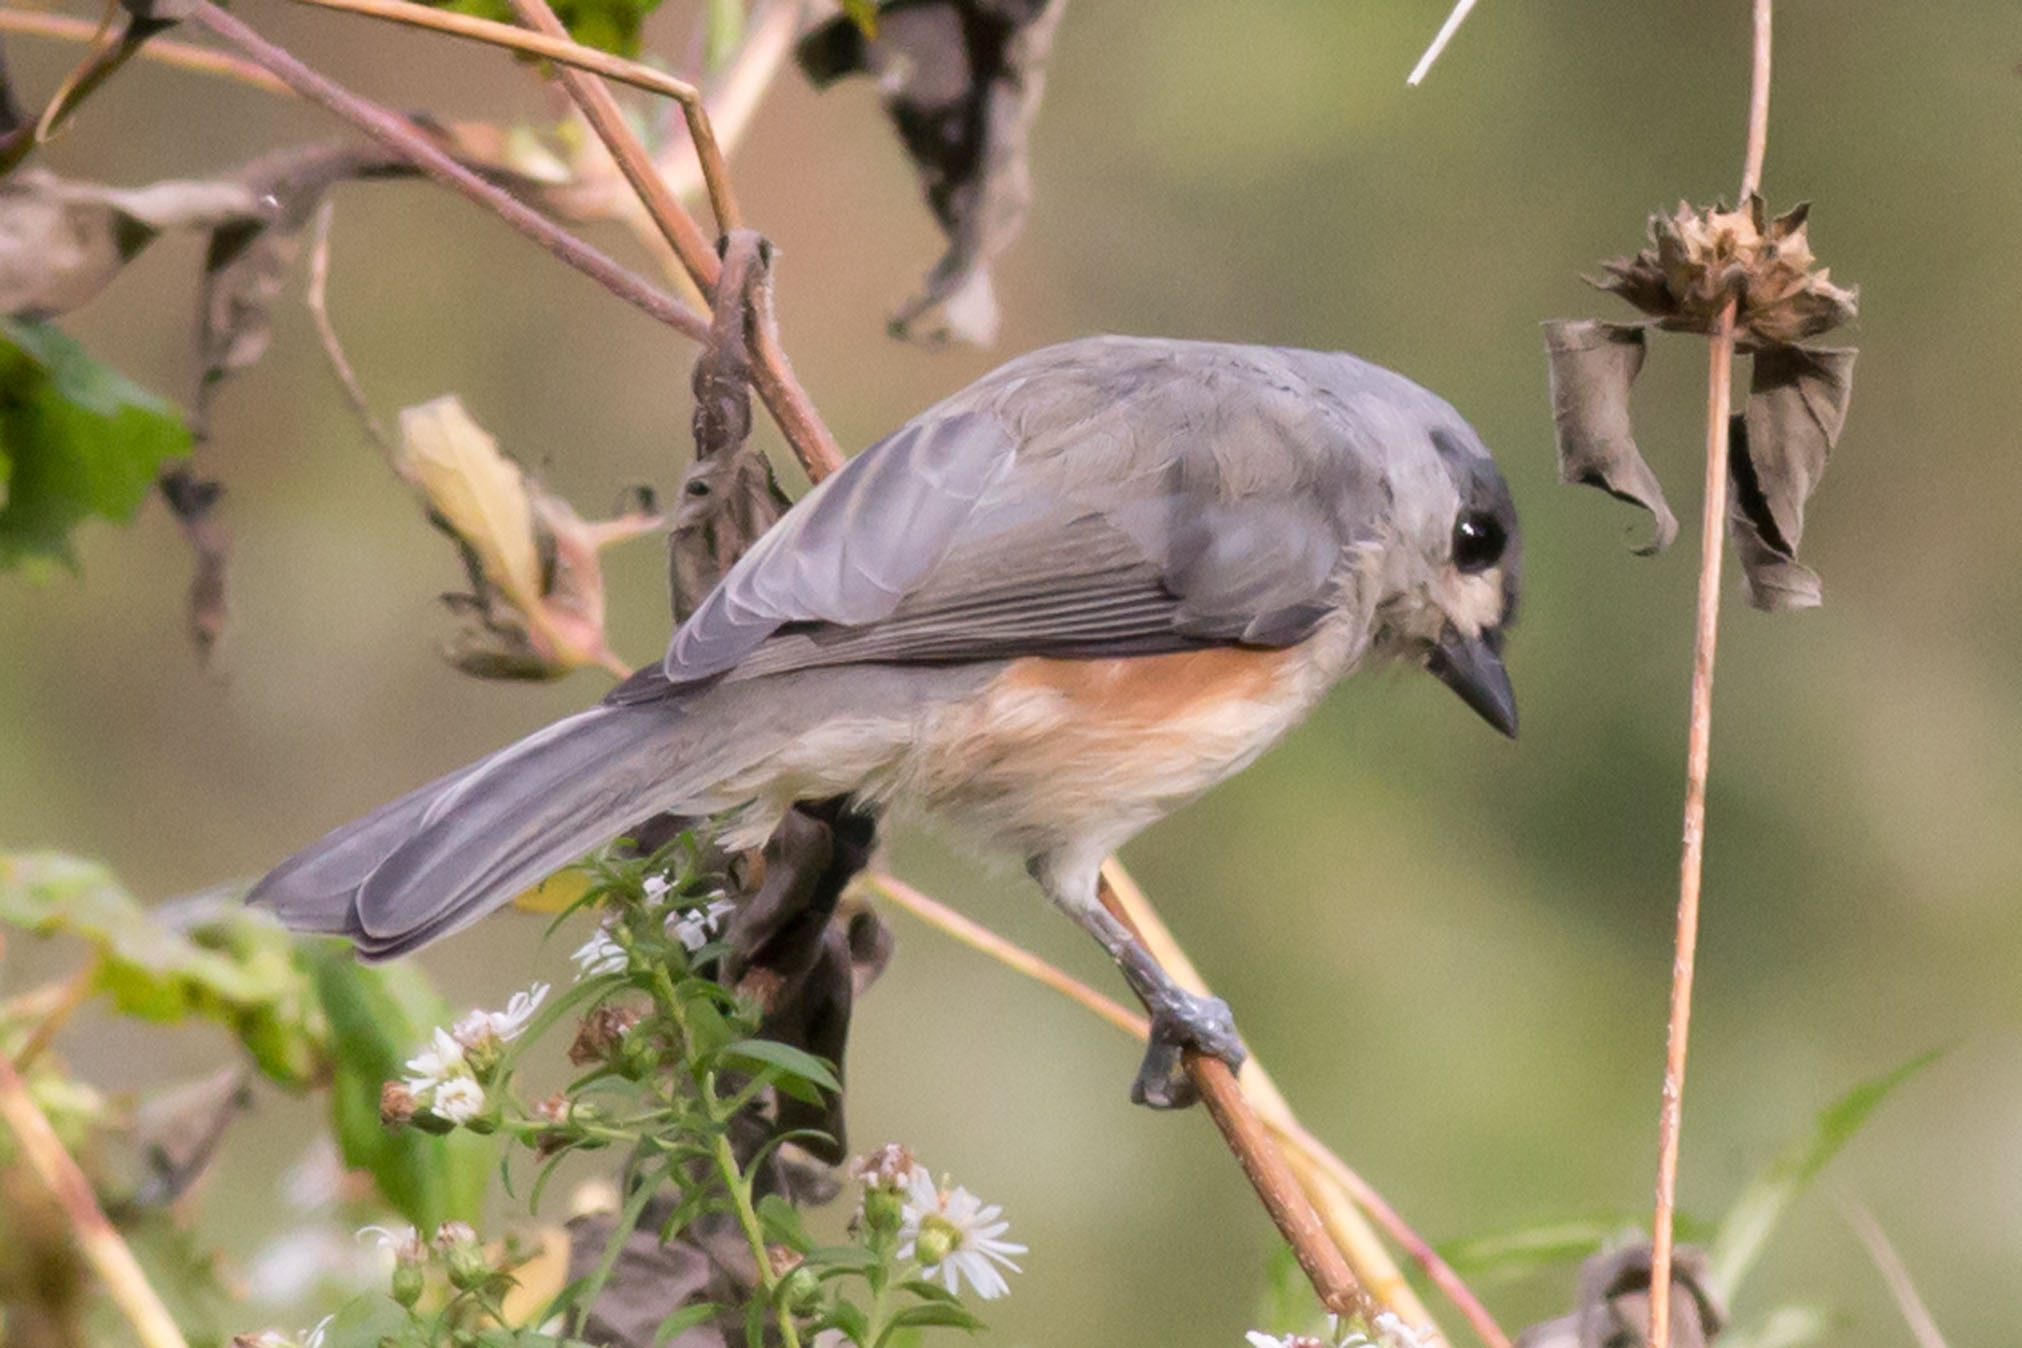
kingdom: Animalia
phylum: Chordata
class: Aves
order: Passeriformes
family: Paridae
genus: Baeolophus
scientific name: Baeolophus bicolor
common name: Tufted titmouse
